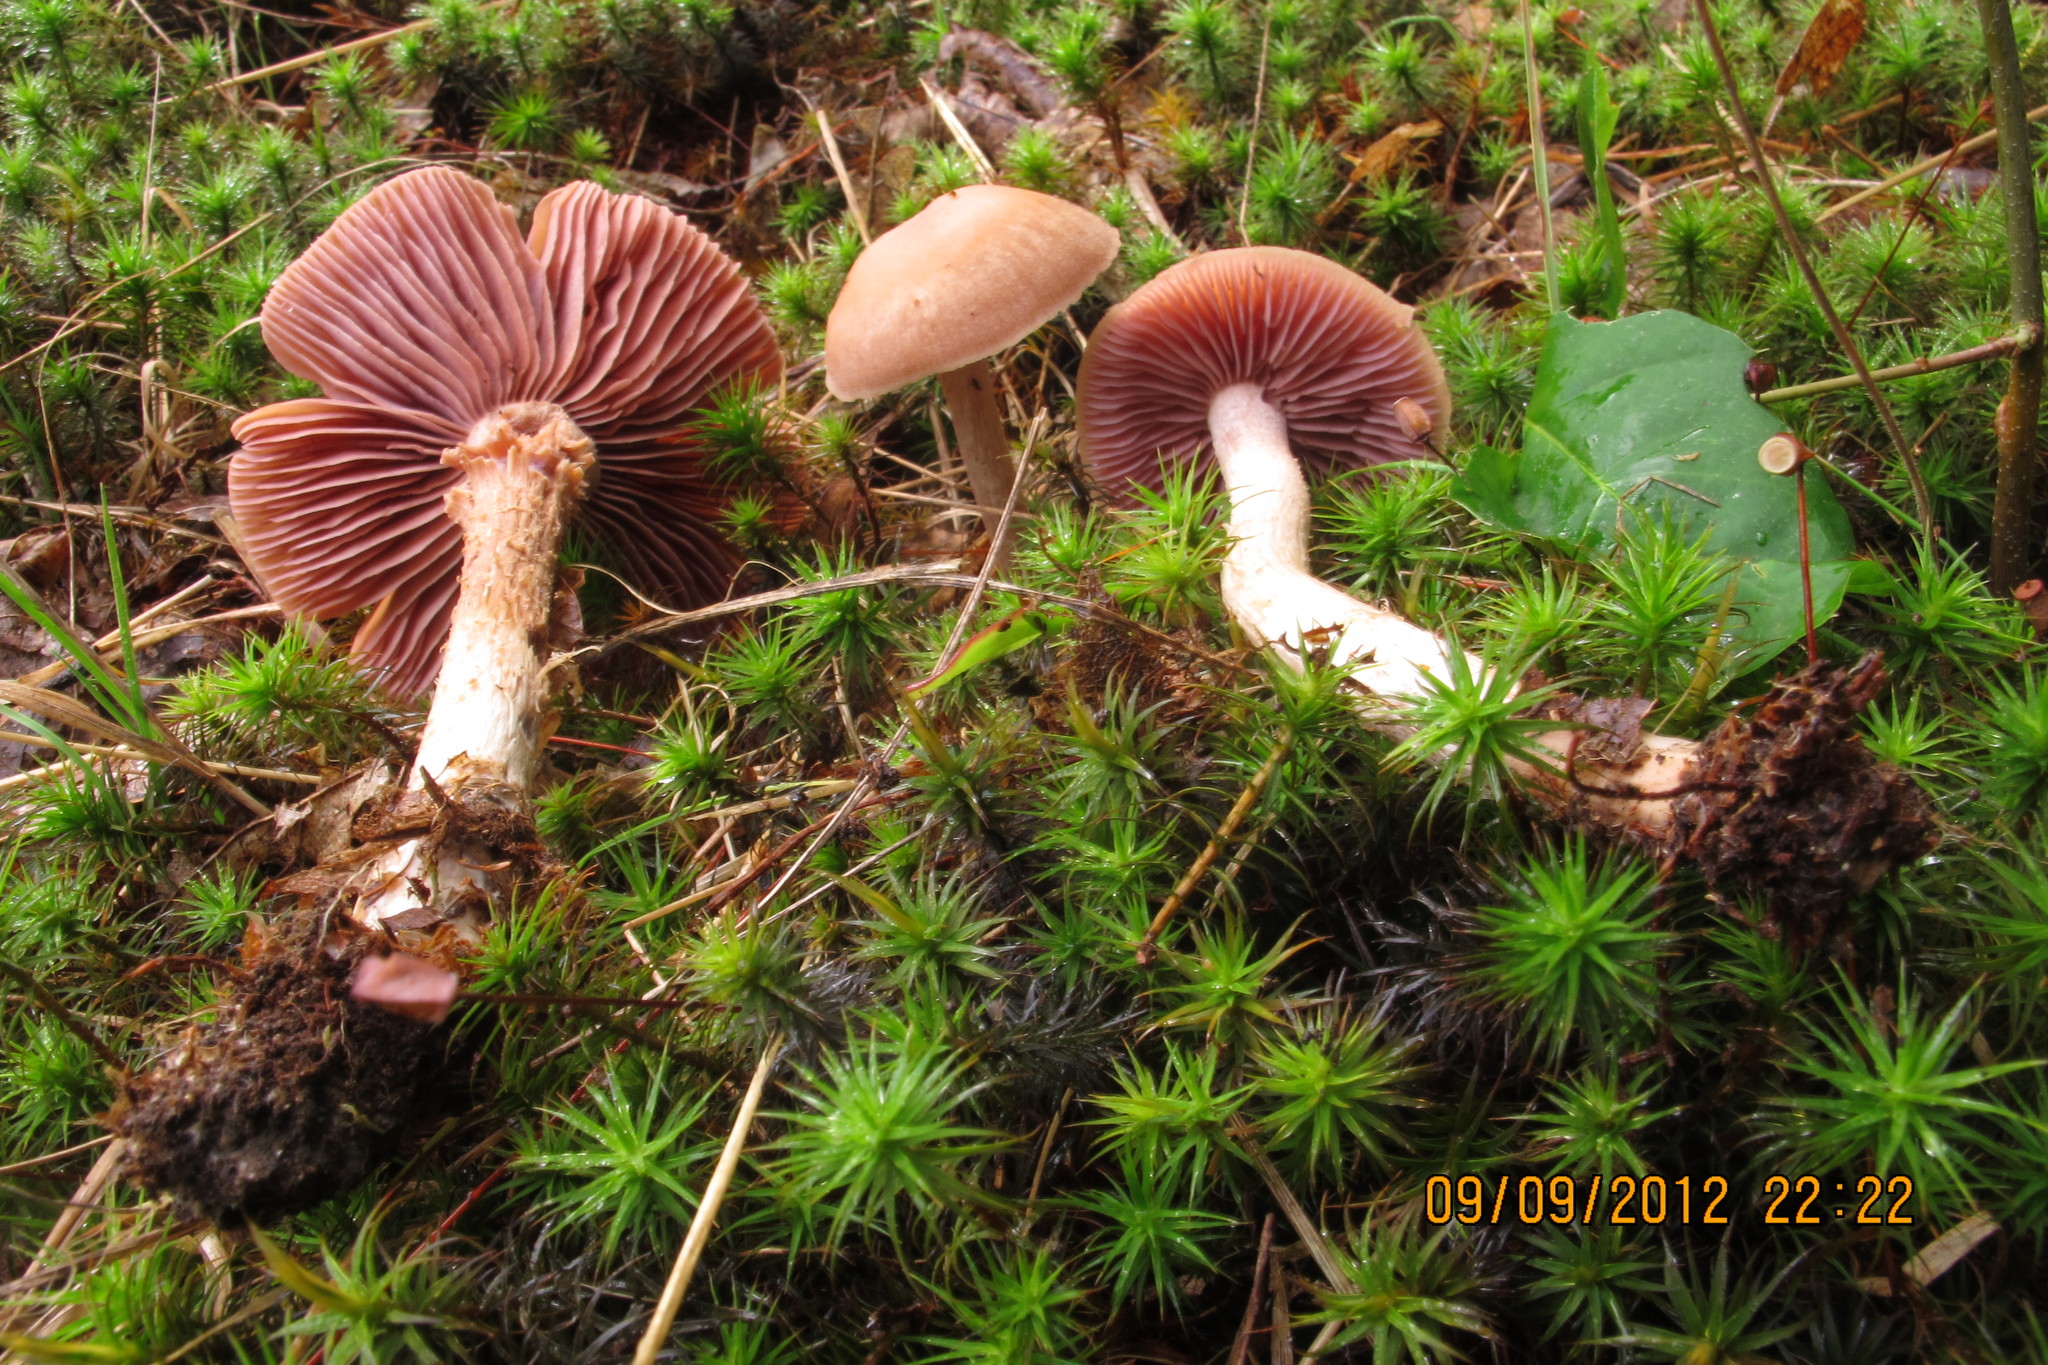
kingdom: Fungi
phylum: Basidiomycota
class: Agaricomycetes
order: Agaricales
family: Hydnangiaceae
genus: Laccaria
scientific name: Laccaria ochropurpurea
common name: Purple laccaria
